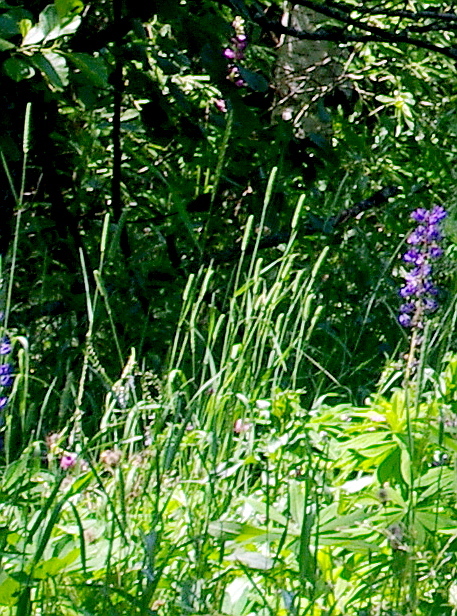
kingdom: Plantae
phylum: Tracheophyta
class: Liliopsida
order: Poales
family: Poaceae
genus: Phleum
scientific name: Phleum pratense
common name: Timothy grass
